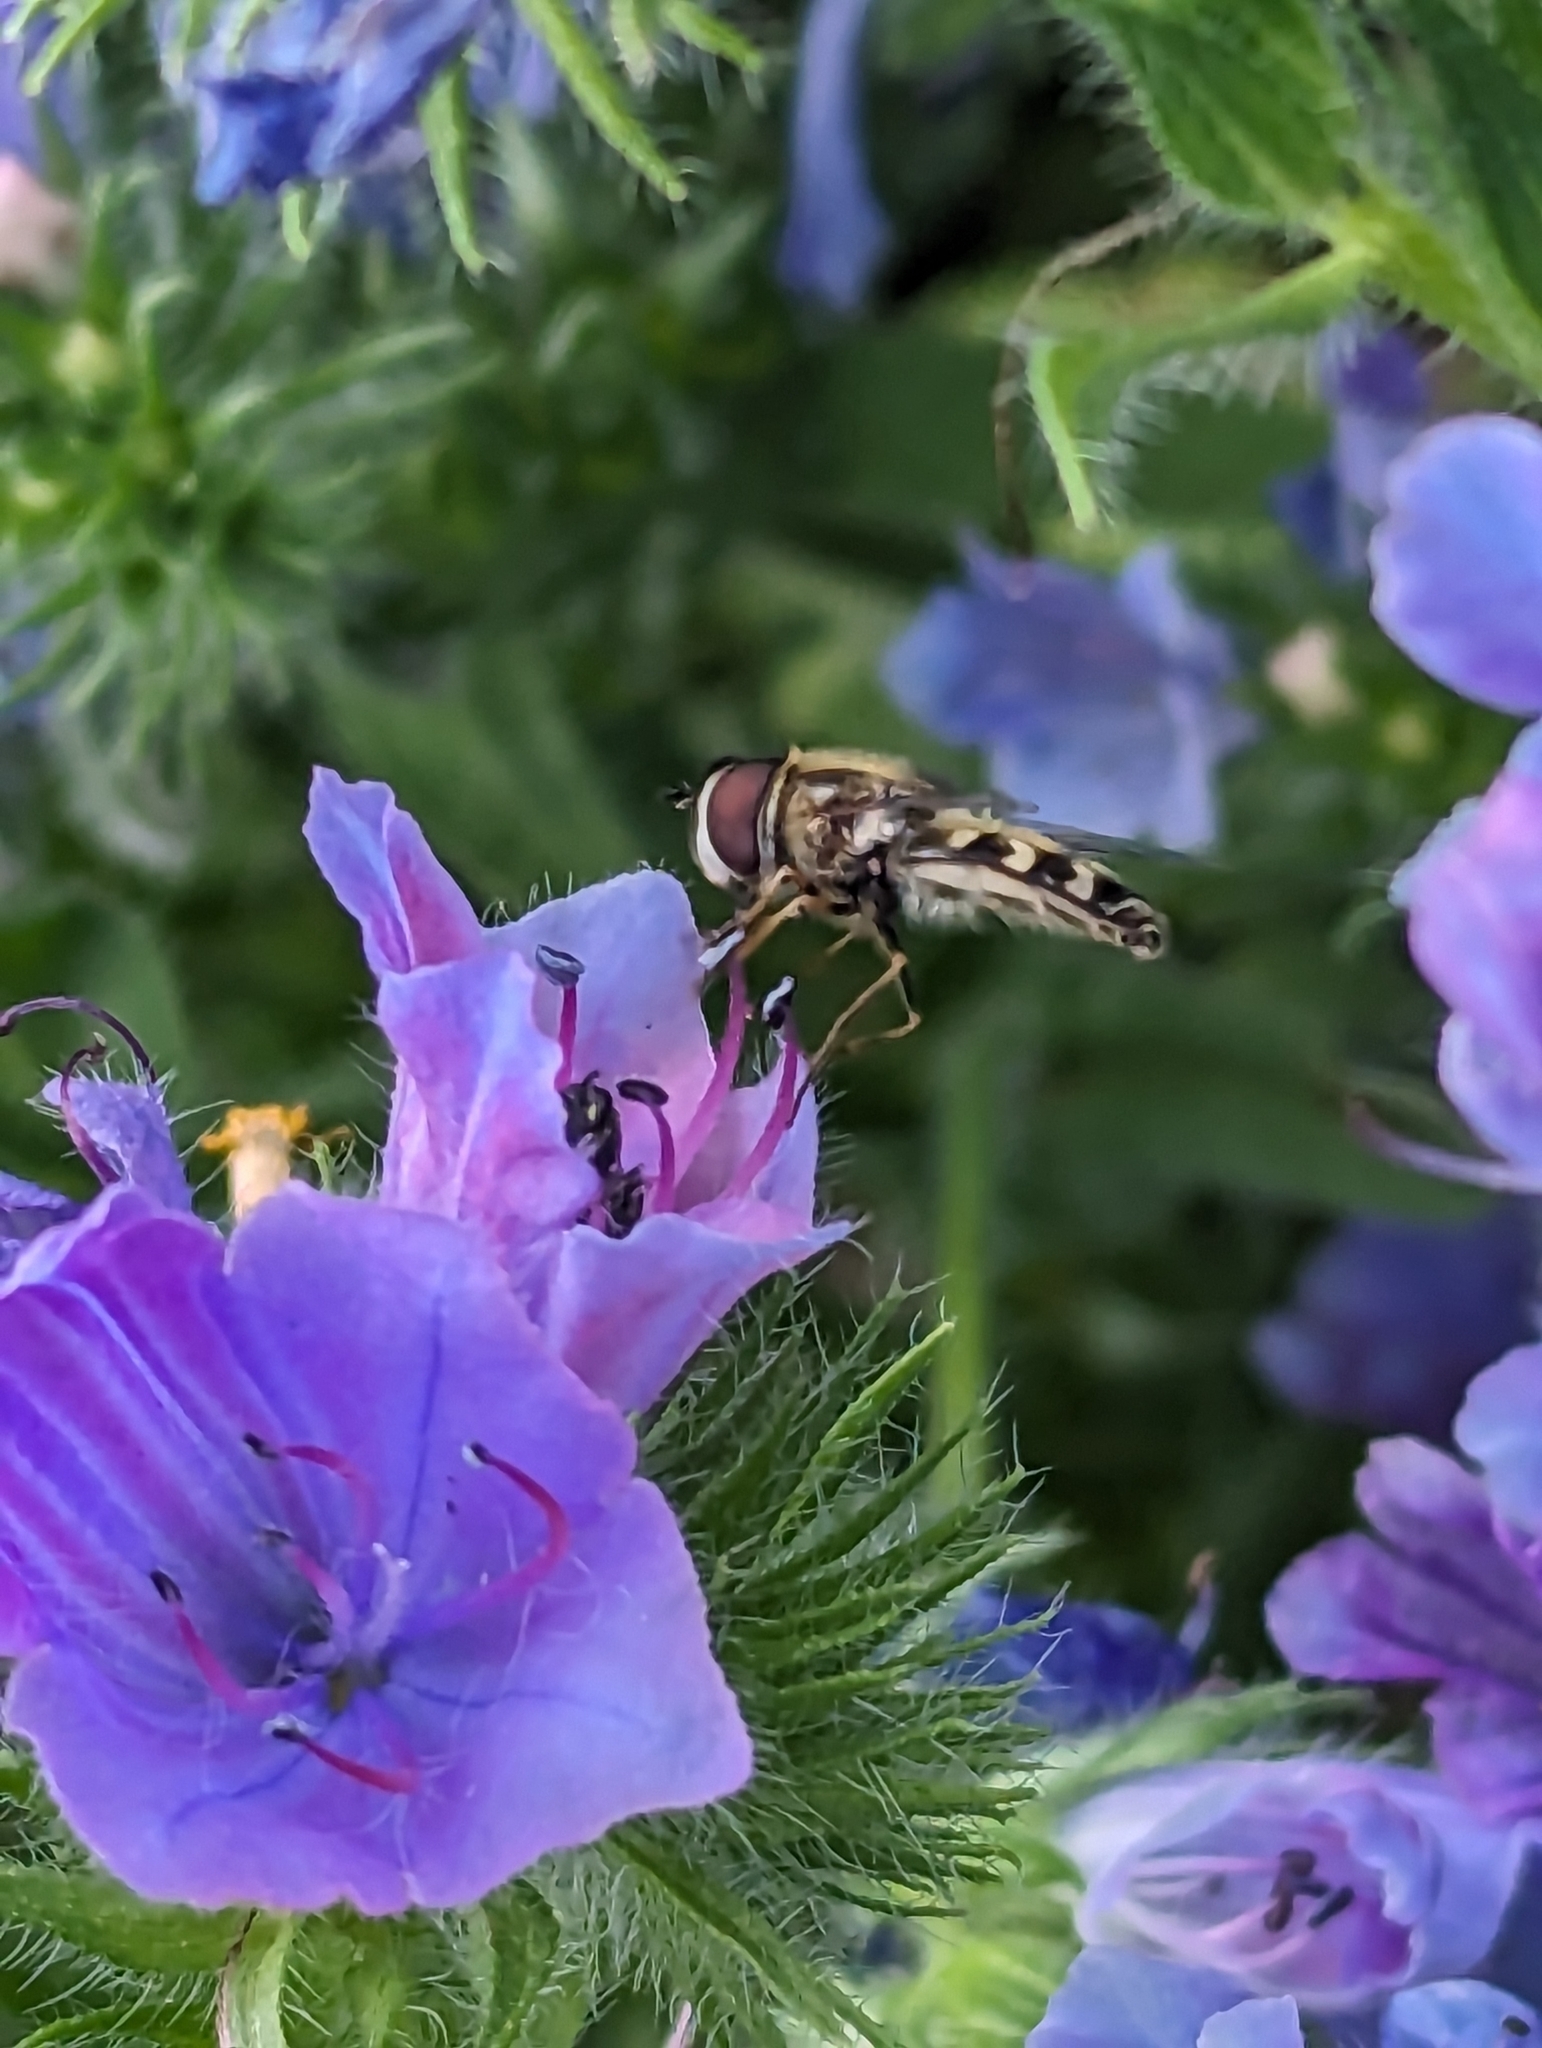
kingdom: Animalia
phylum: Arthropoda
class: Insecta
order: Diptera
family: Syrphidae
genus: Scaeva
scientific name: Scaeva pyrastri
